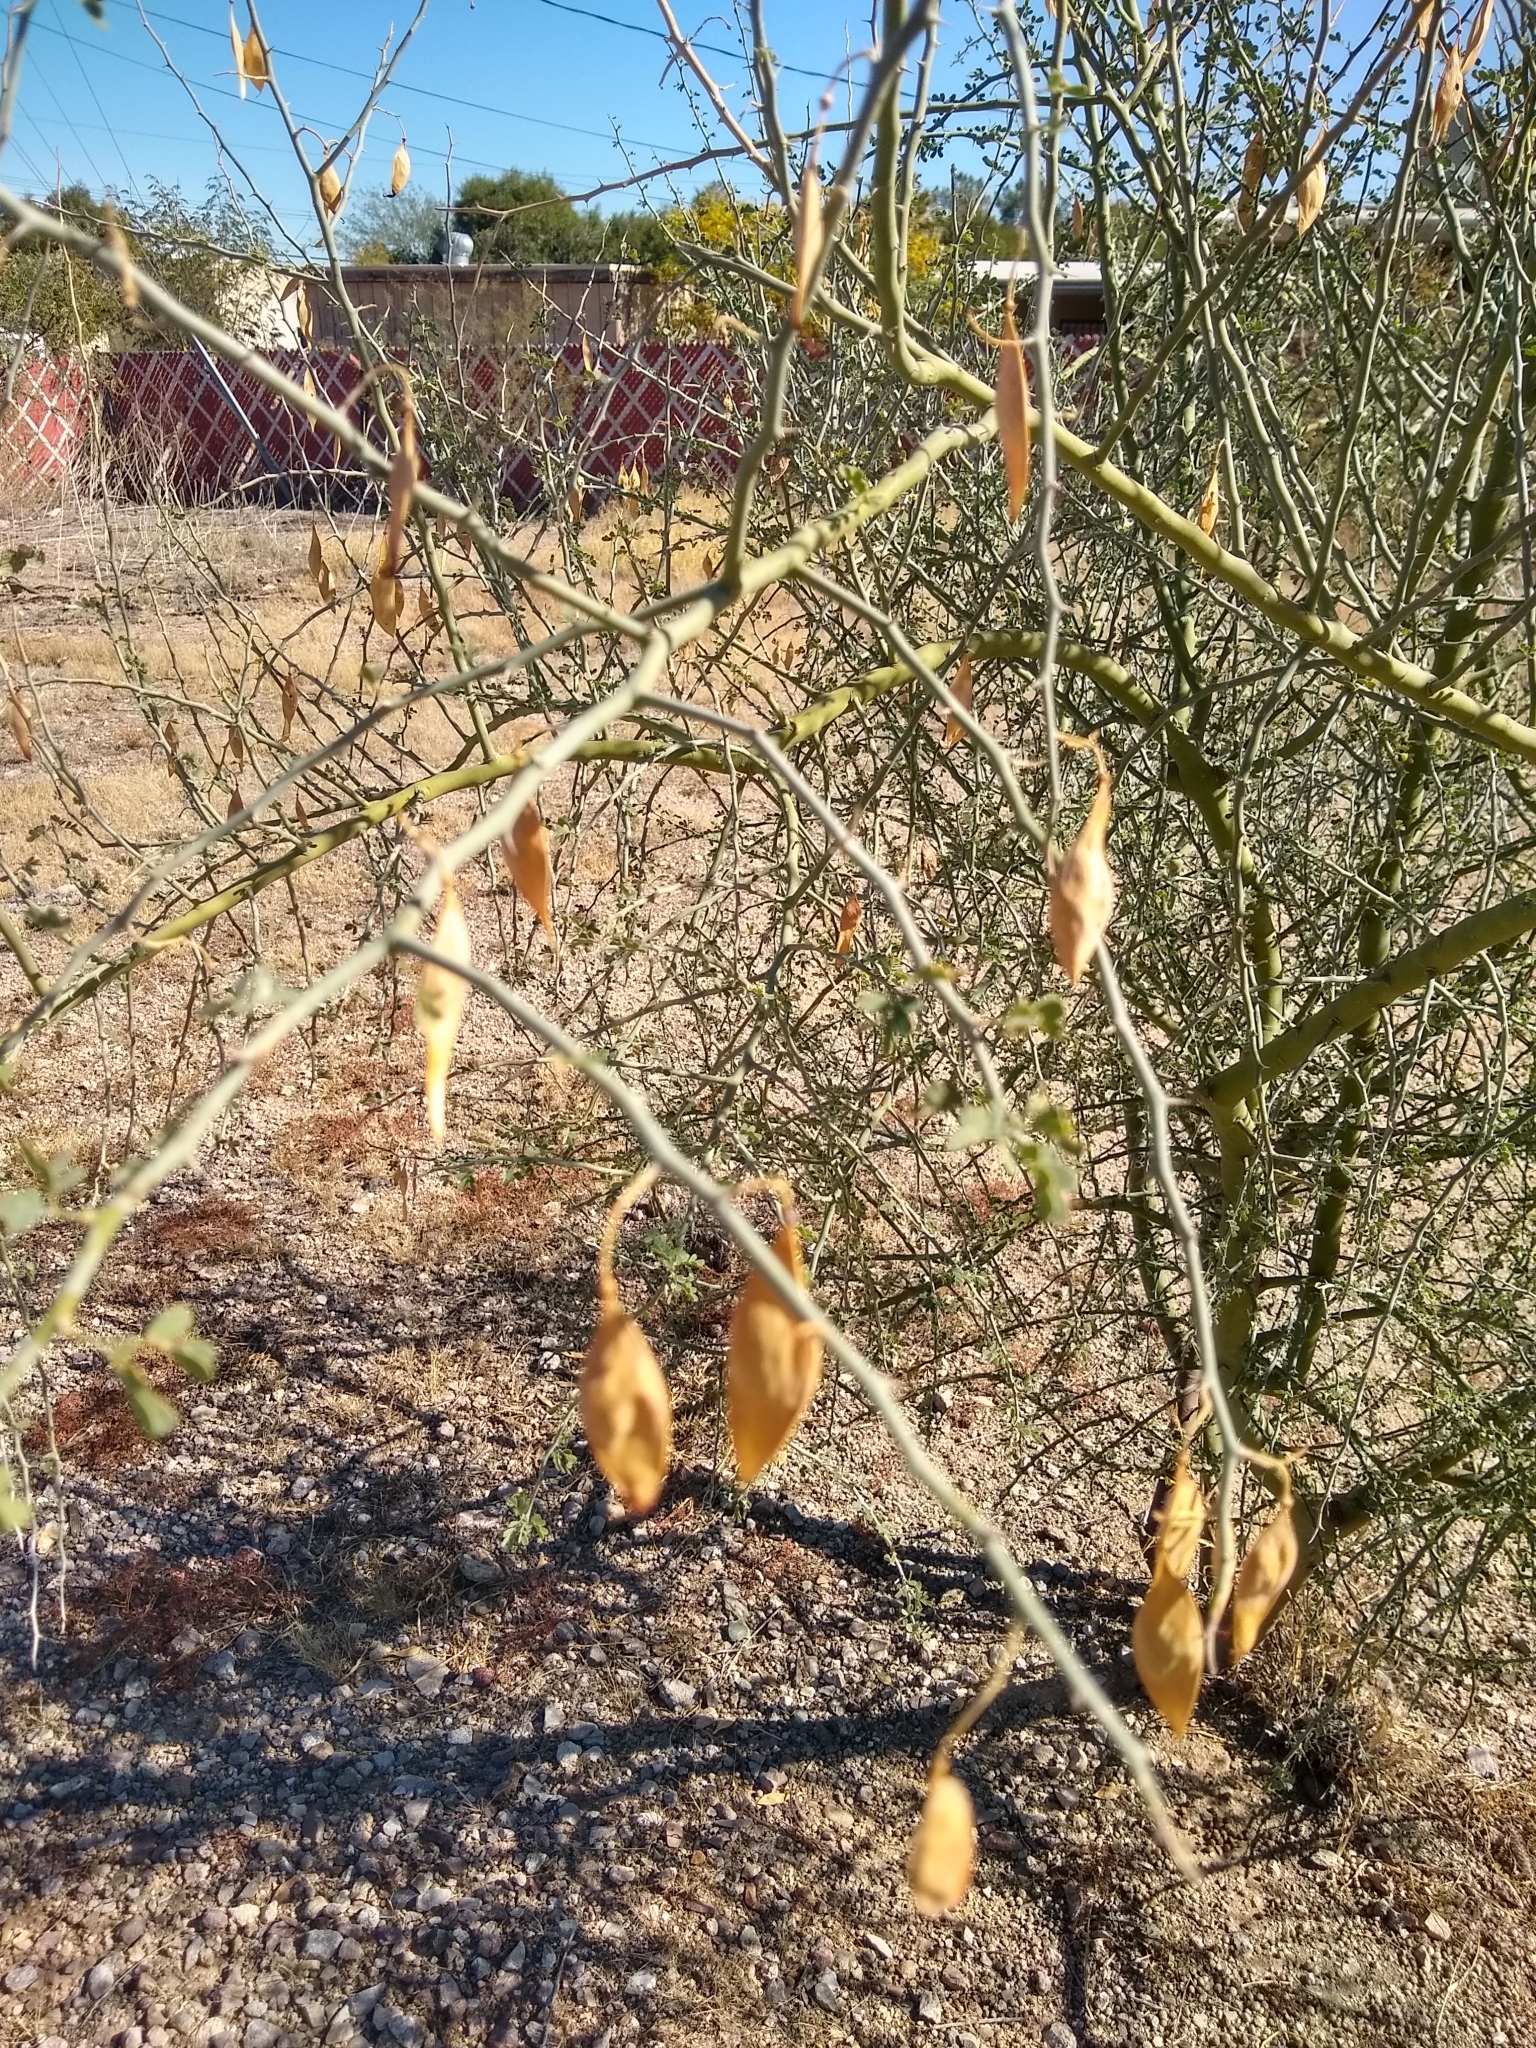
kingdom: Plantae
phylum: Tracheophyta
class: Magnoliopsida
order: Fabales
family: Fabaceae
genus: Parkinsonia
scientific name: Parkinsonia florida
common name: Blue paloverde
